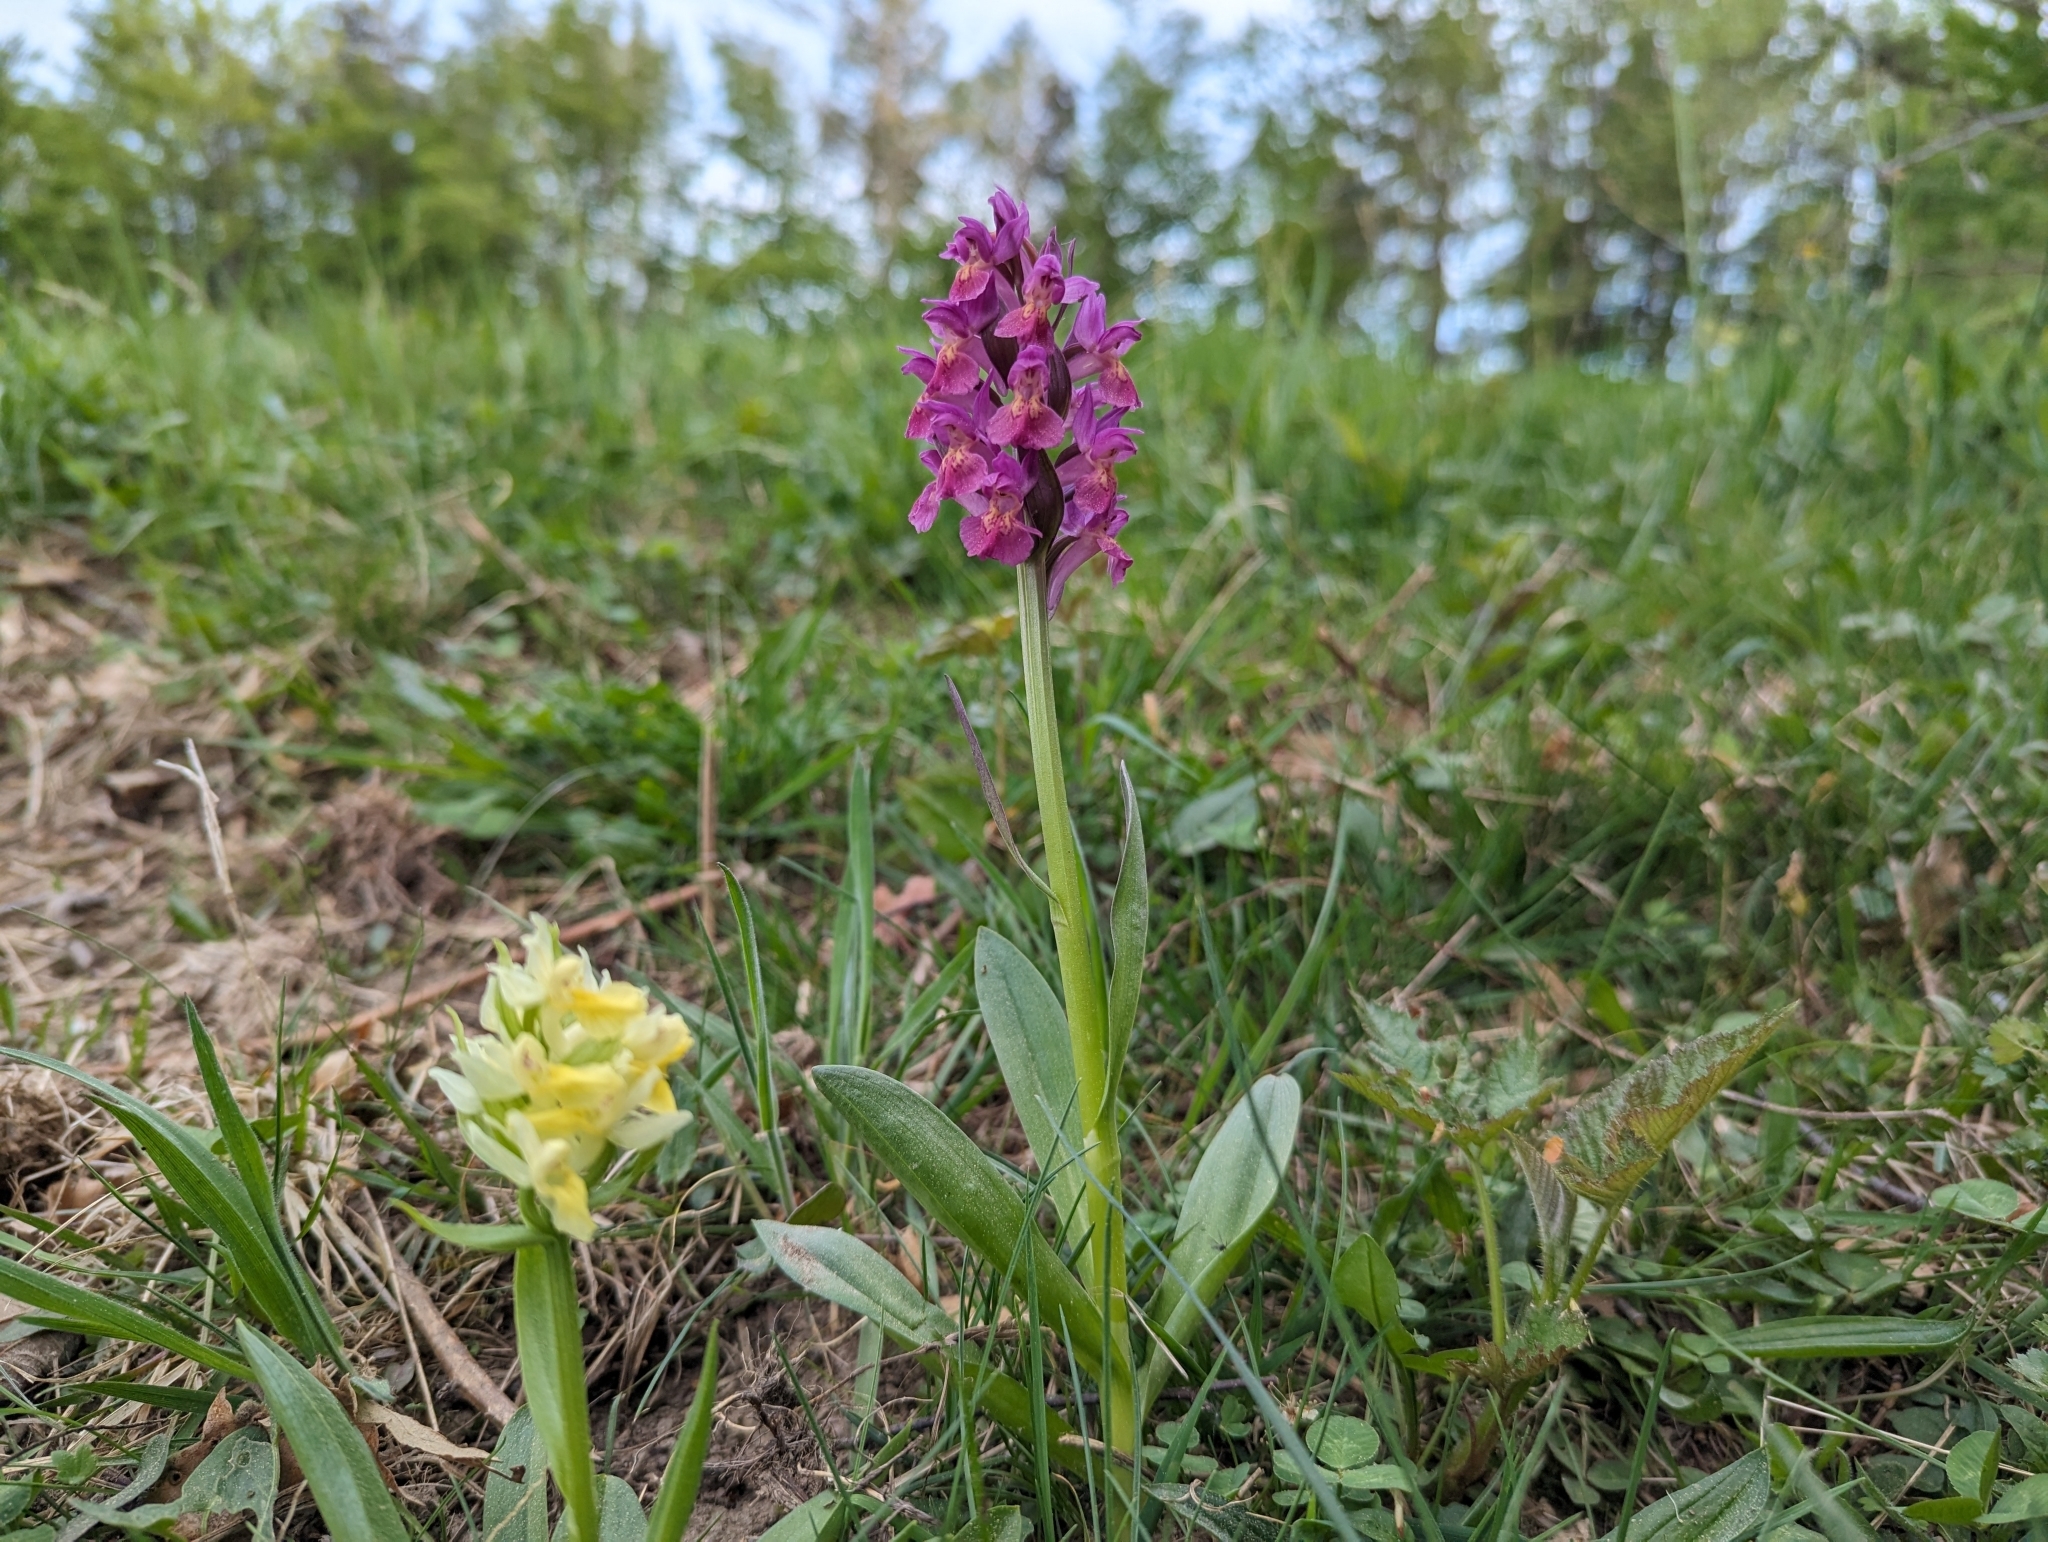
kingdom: Plantae
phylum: Tracheophyta
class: Liliopsida
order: Asparagales
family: Orchidaceae
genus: Dactylorhiza
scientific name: Dactylorhiza sambucina
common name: Elder-flowered orchid
